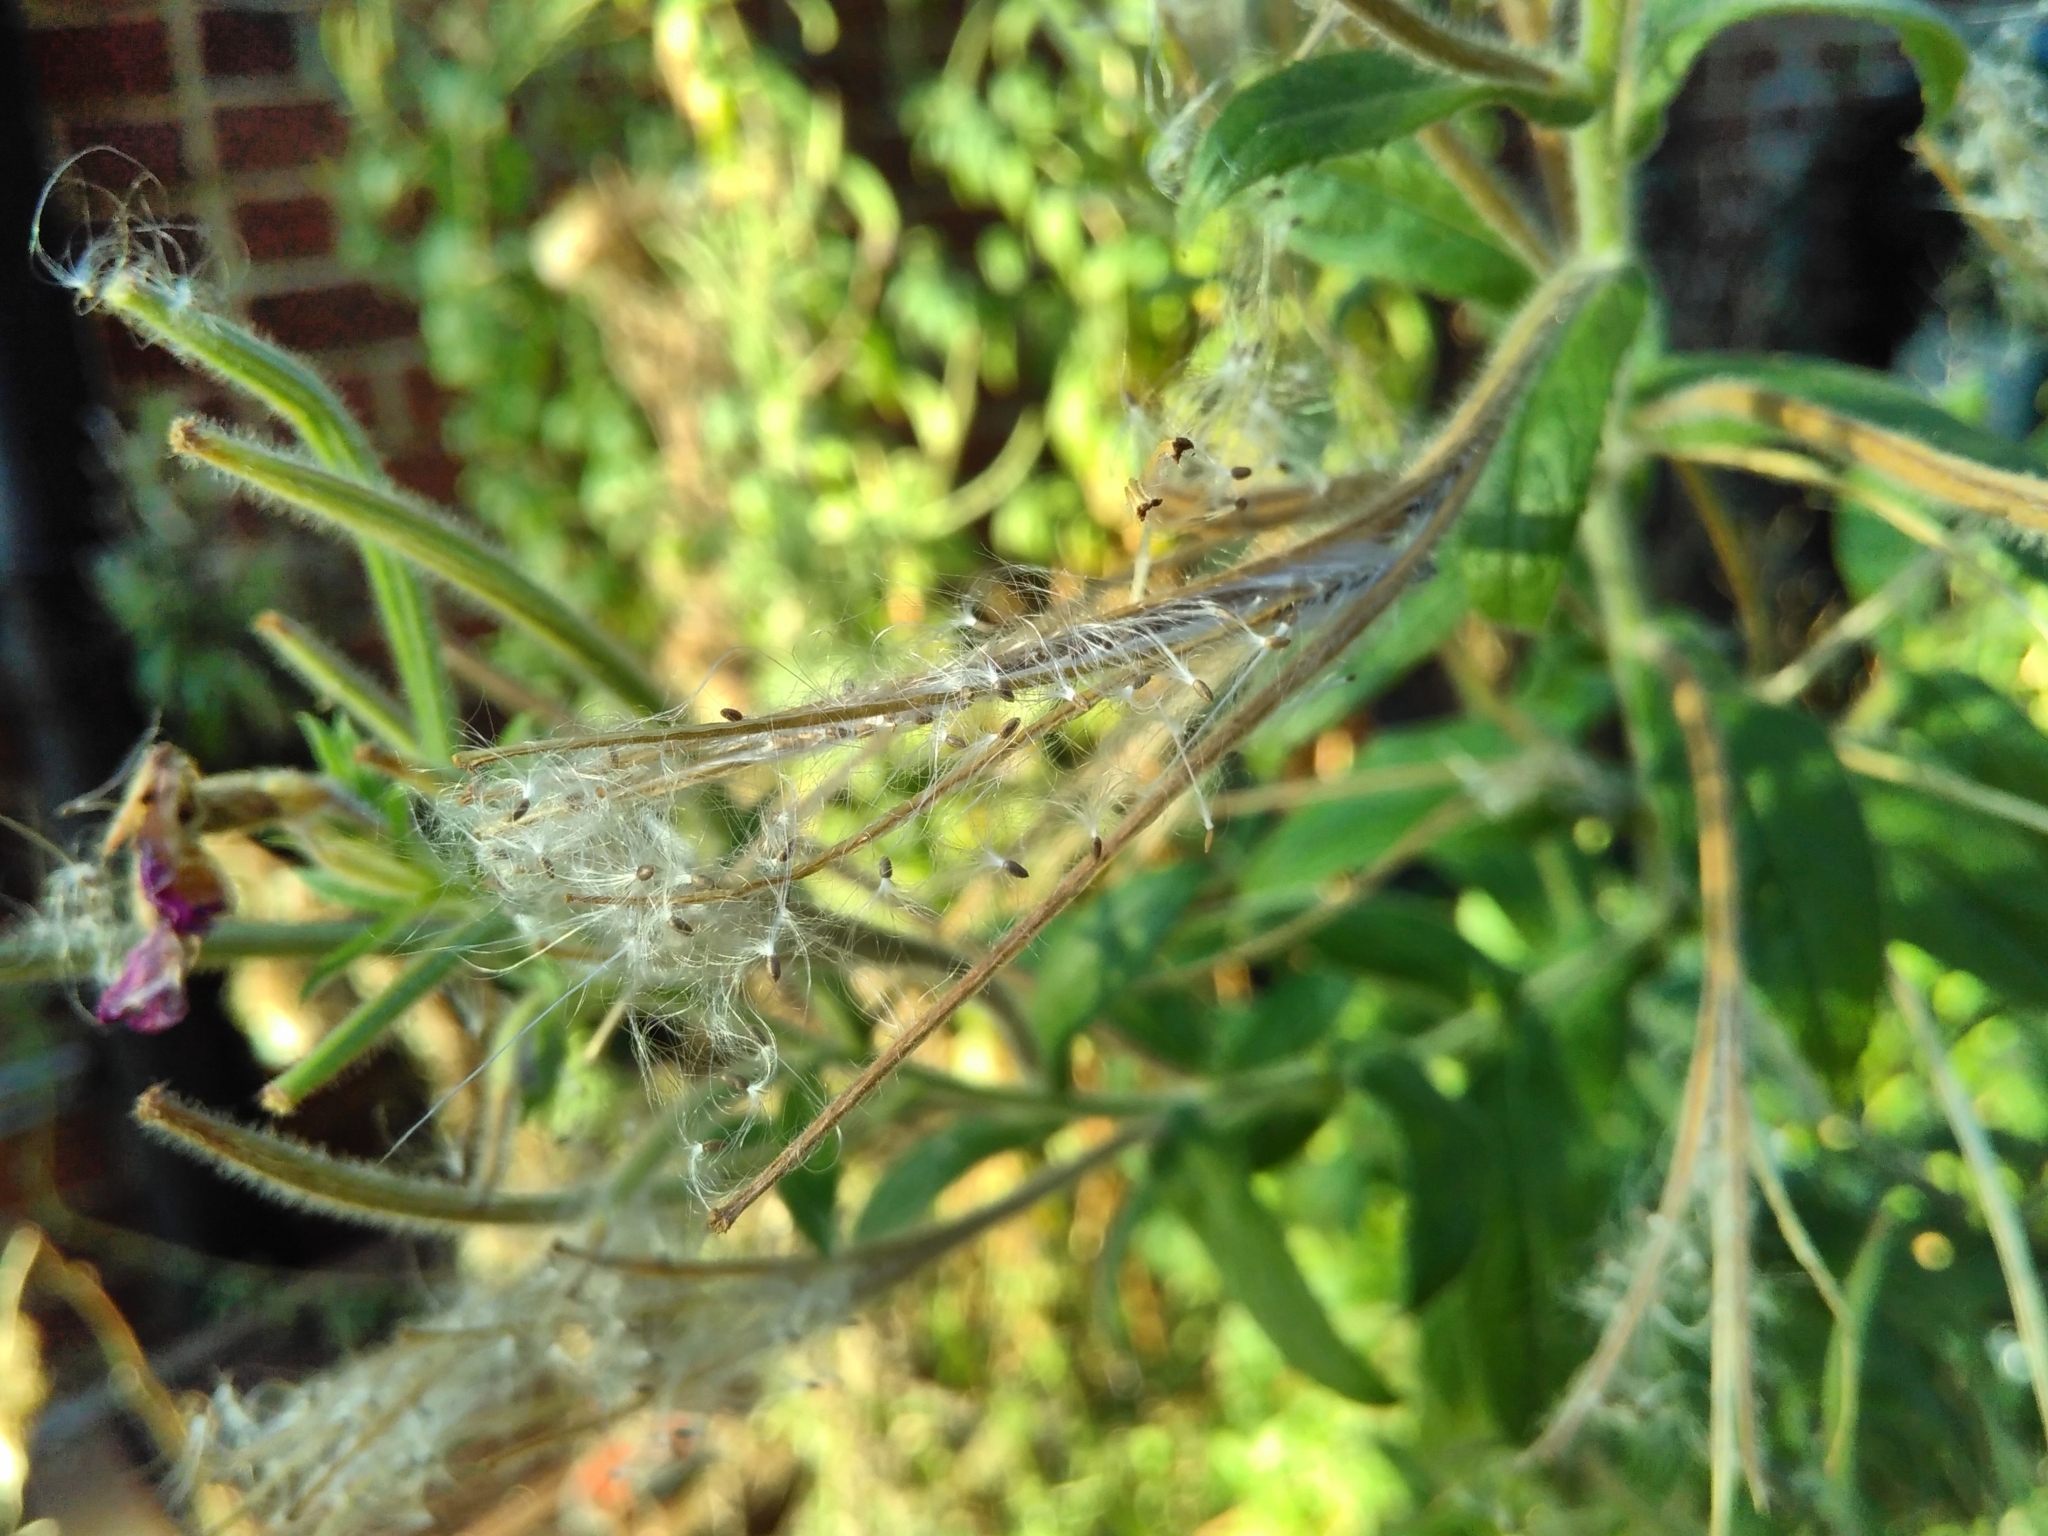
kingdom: Plantae
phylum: Tracheophyta
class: Magnoliopsida
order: Myrtales
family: Onagraceae
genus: Epilobium
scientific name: Epilobium hirsutum
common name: Great willowherb
